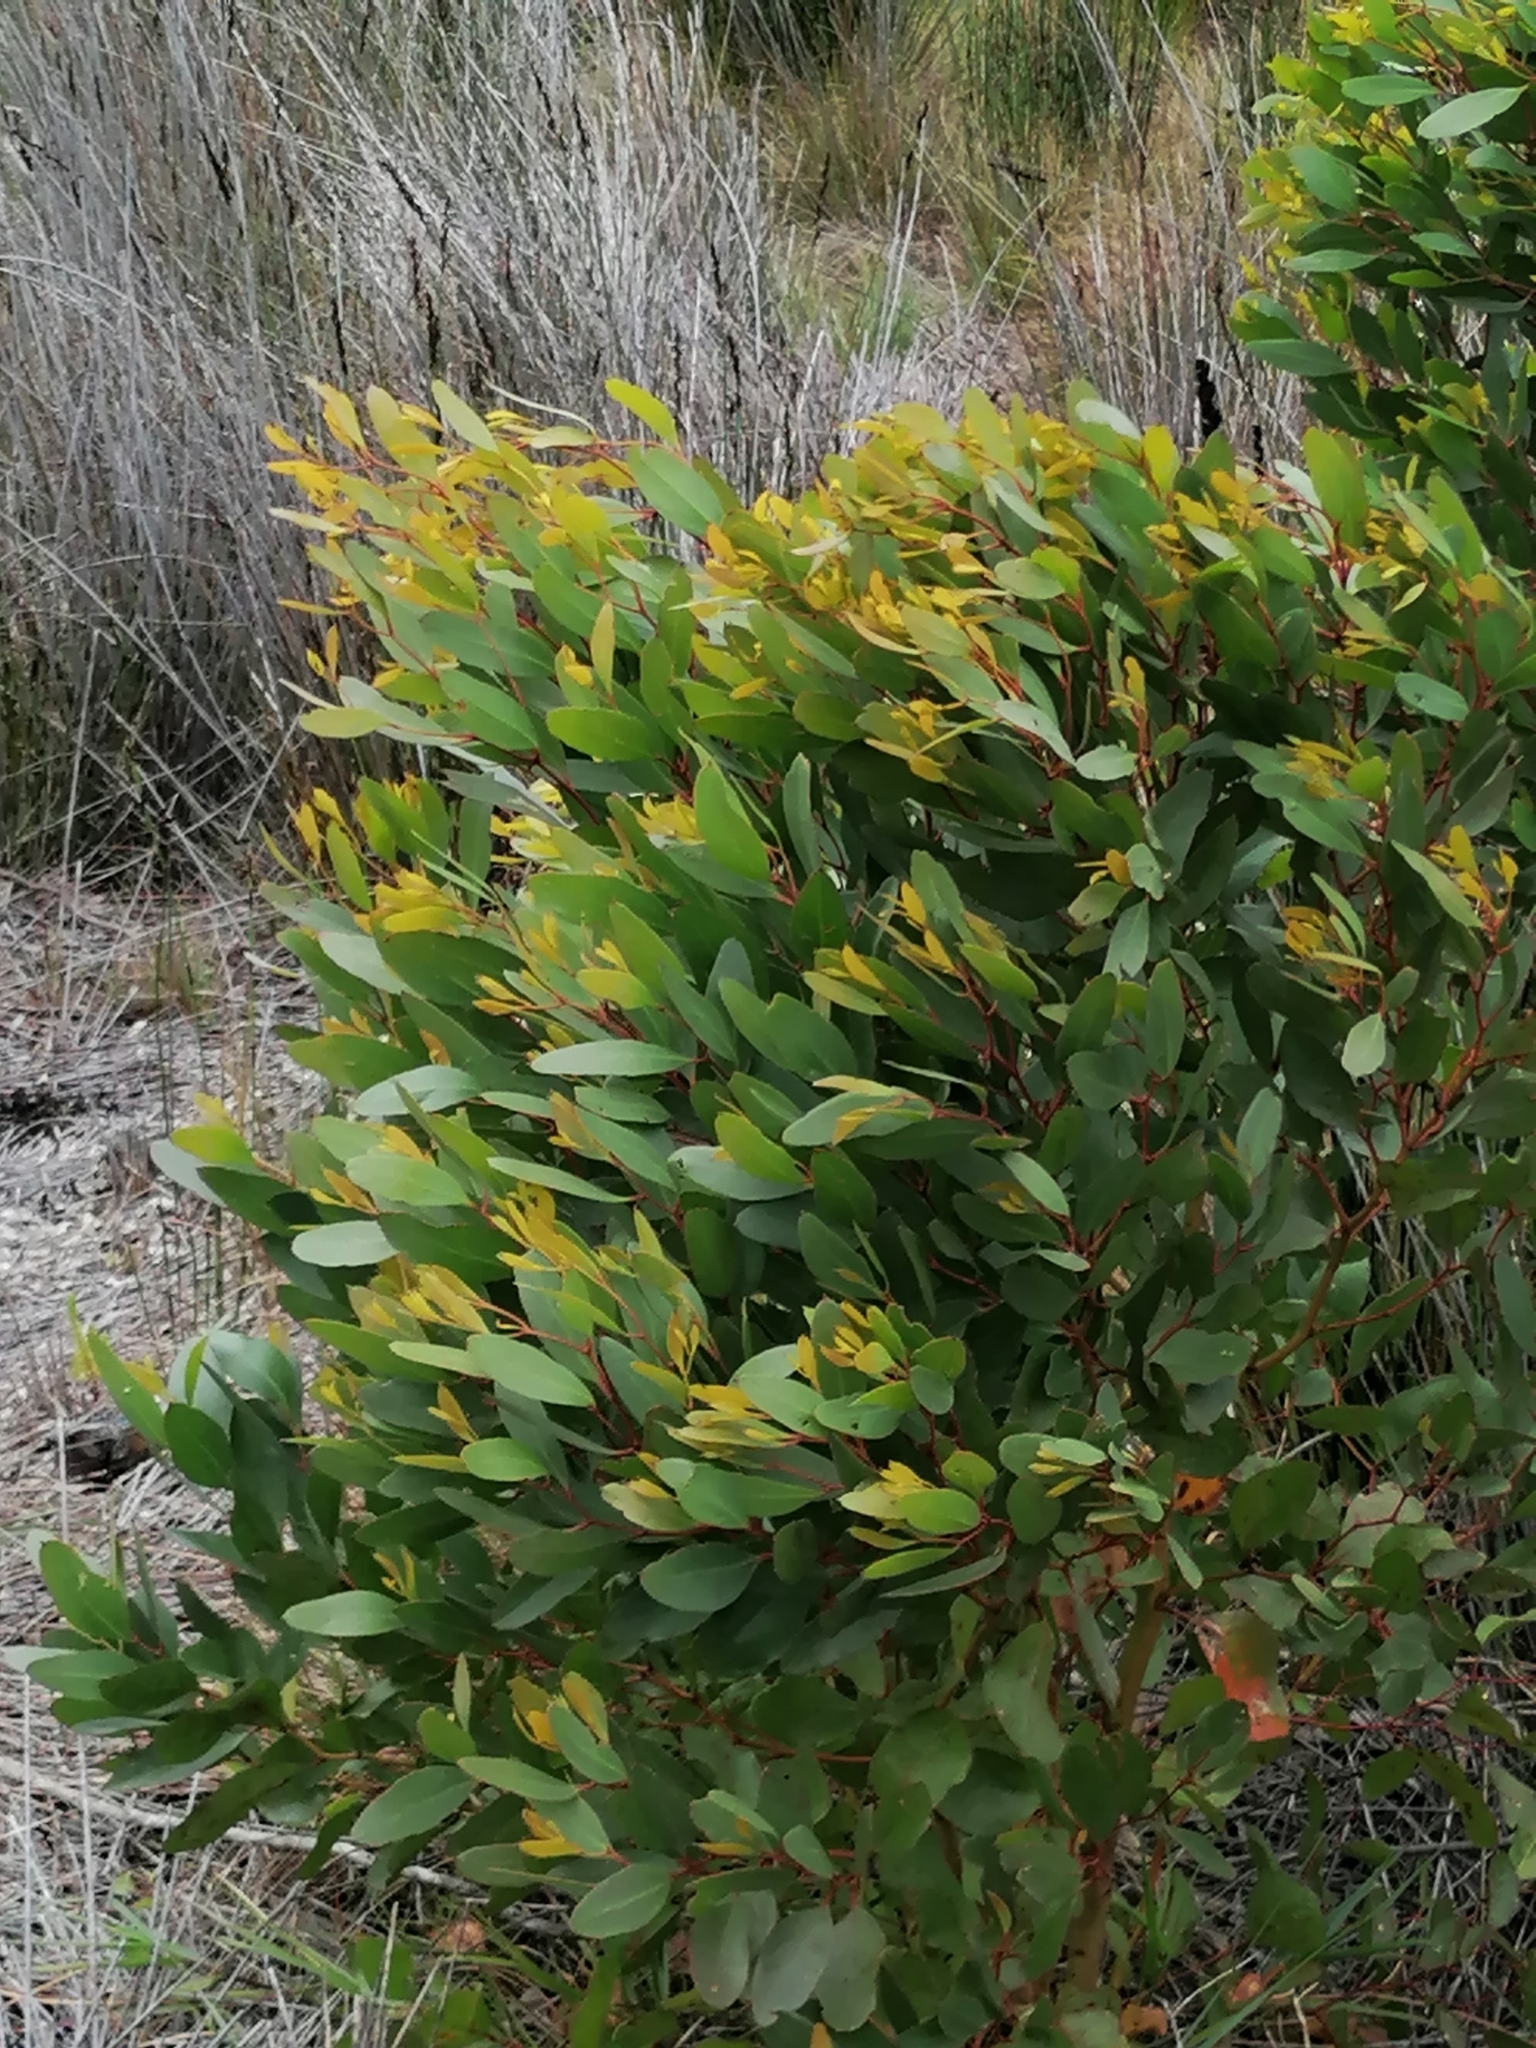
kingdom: Plantae
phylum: Tracheophyta
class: Magnoliopsida
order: Myrtales
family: Myrtaceae
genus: Eucalyptus
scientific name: Eucalyptus conferruminata
